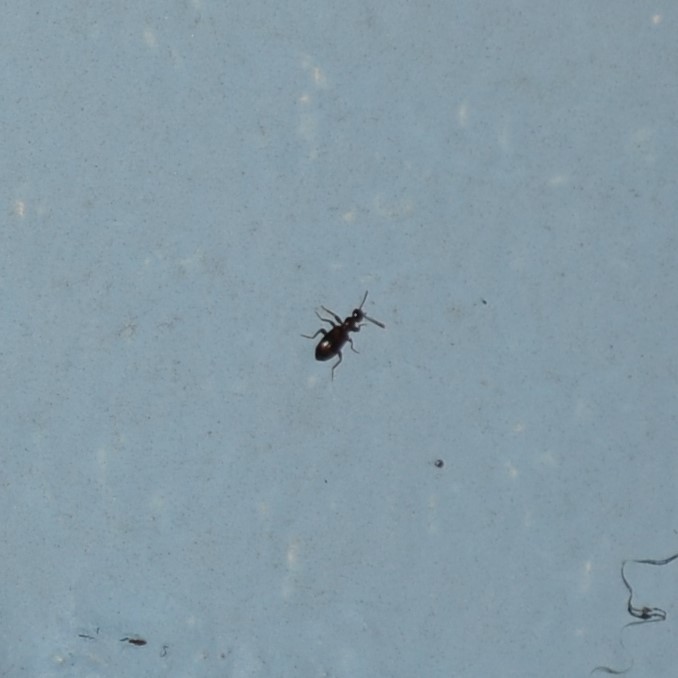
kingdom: Animalia
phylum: Arthropoda
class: Insecta
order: Coleoptera
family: Anthicidae
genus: Acanthinus
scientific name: Acanthinus
